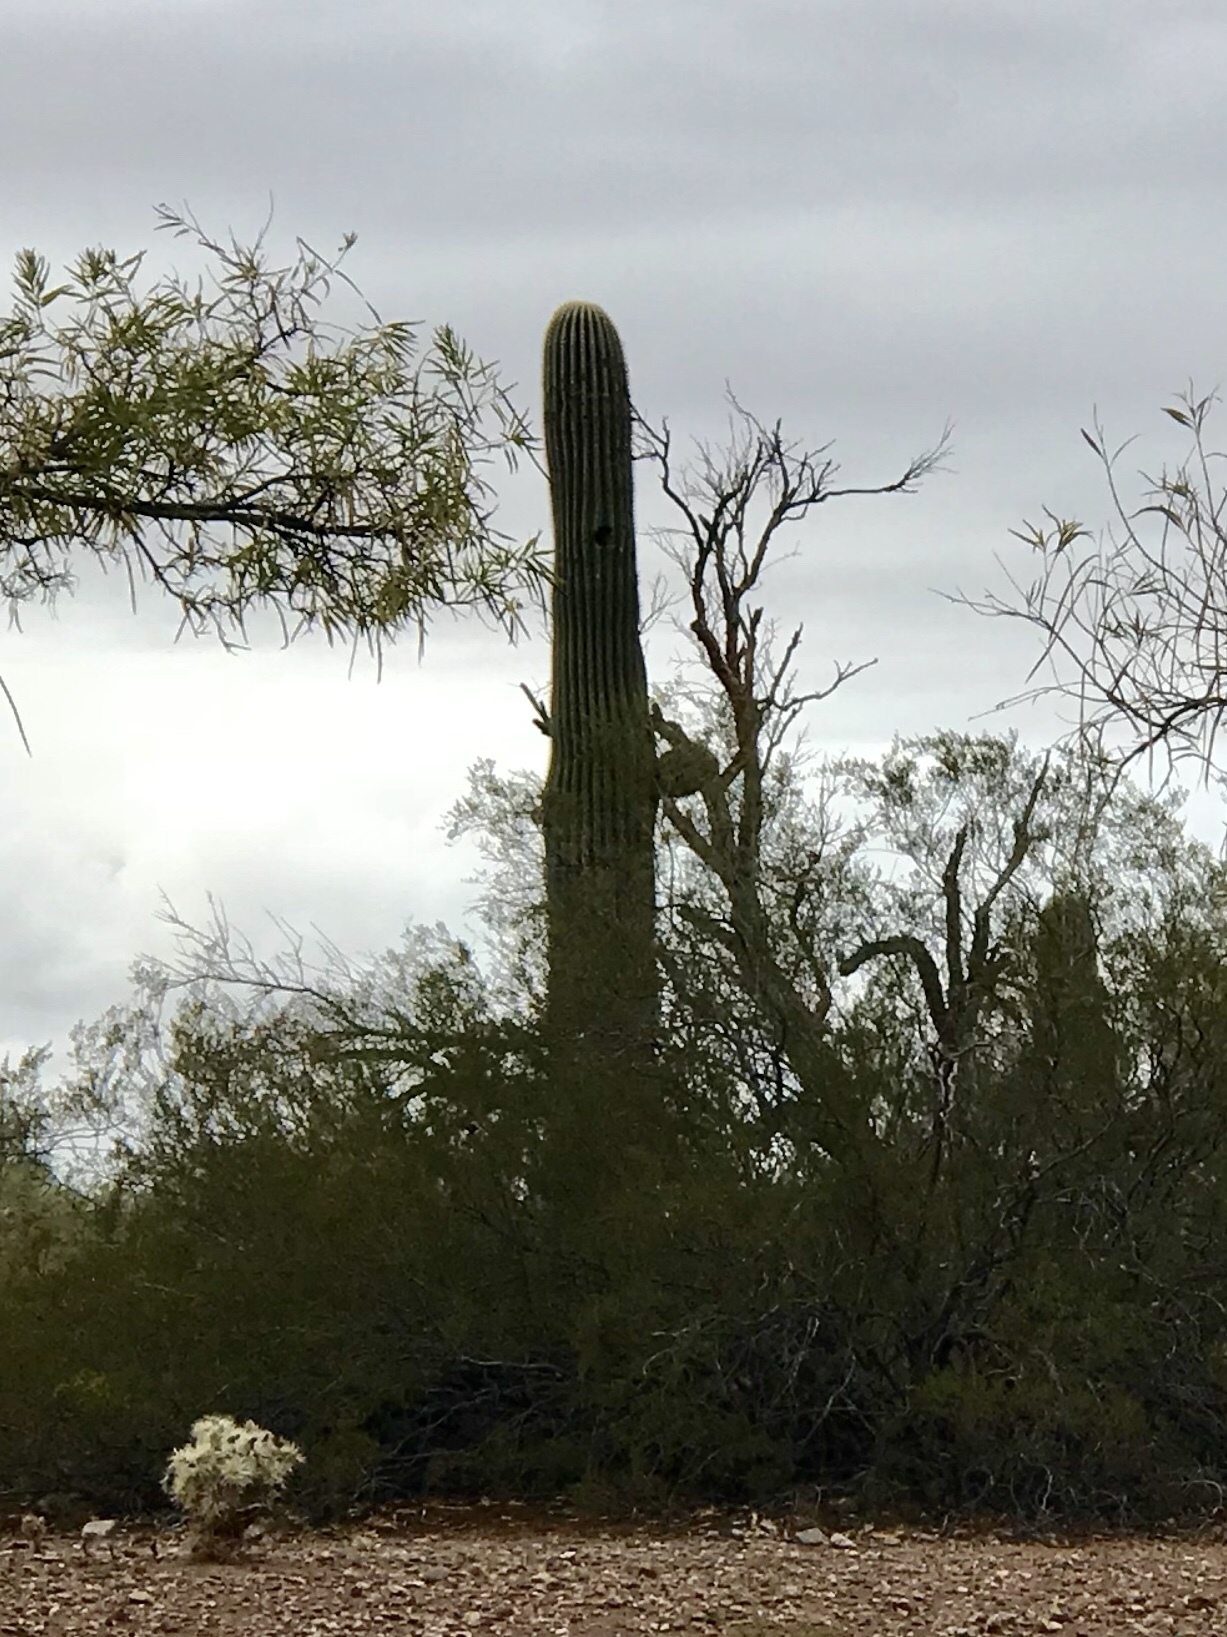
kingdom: Plantae
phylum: Tracheophyta
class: Magnoliopsida
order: Caryophyllales
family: Cactaceae
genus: Carnegiea
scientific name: Carnegiea gigantea
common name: Saguaro
